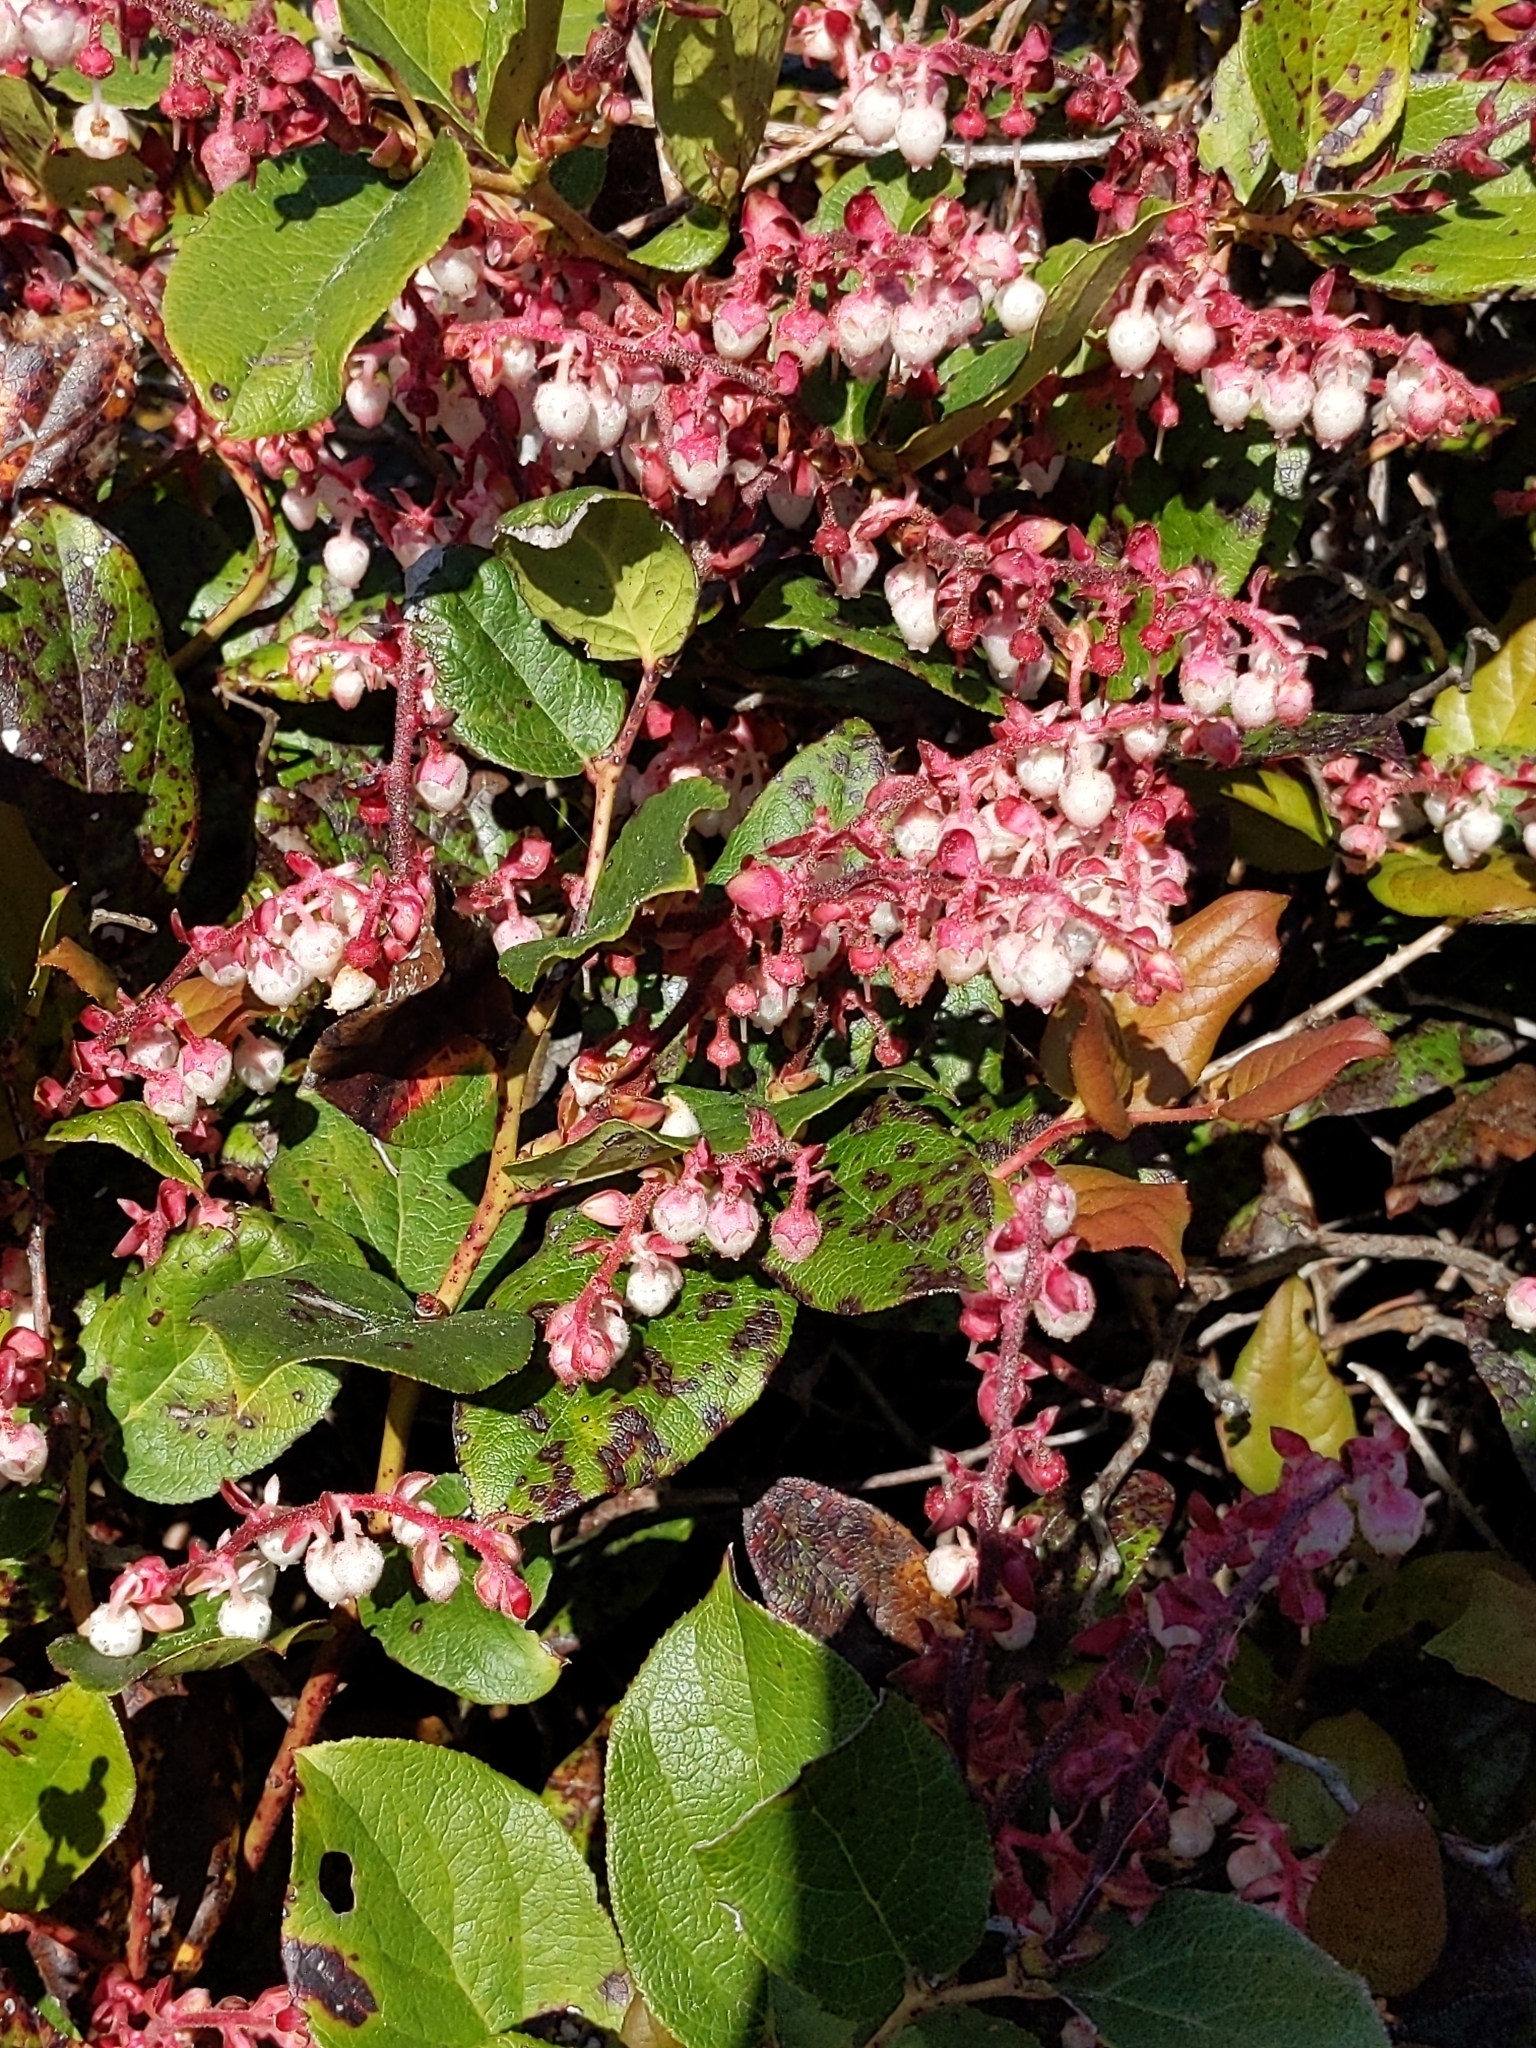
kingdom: Plantae
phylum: Tracheophyta
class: Magnoliopsida
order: Ericales
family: Ericaceae
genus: Gaultheria
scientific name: Gaultheria shallon
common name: Shallon
